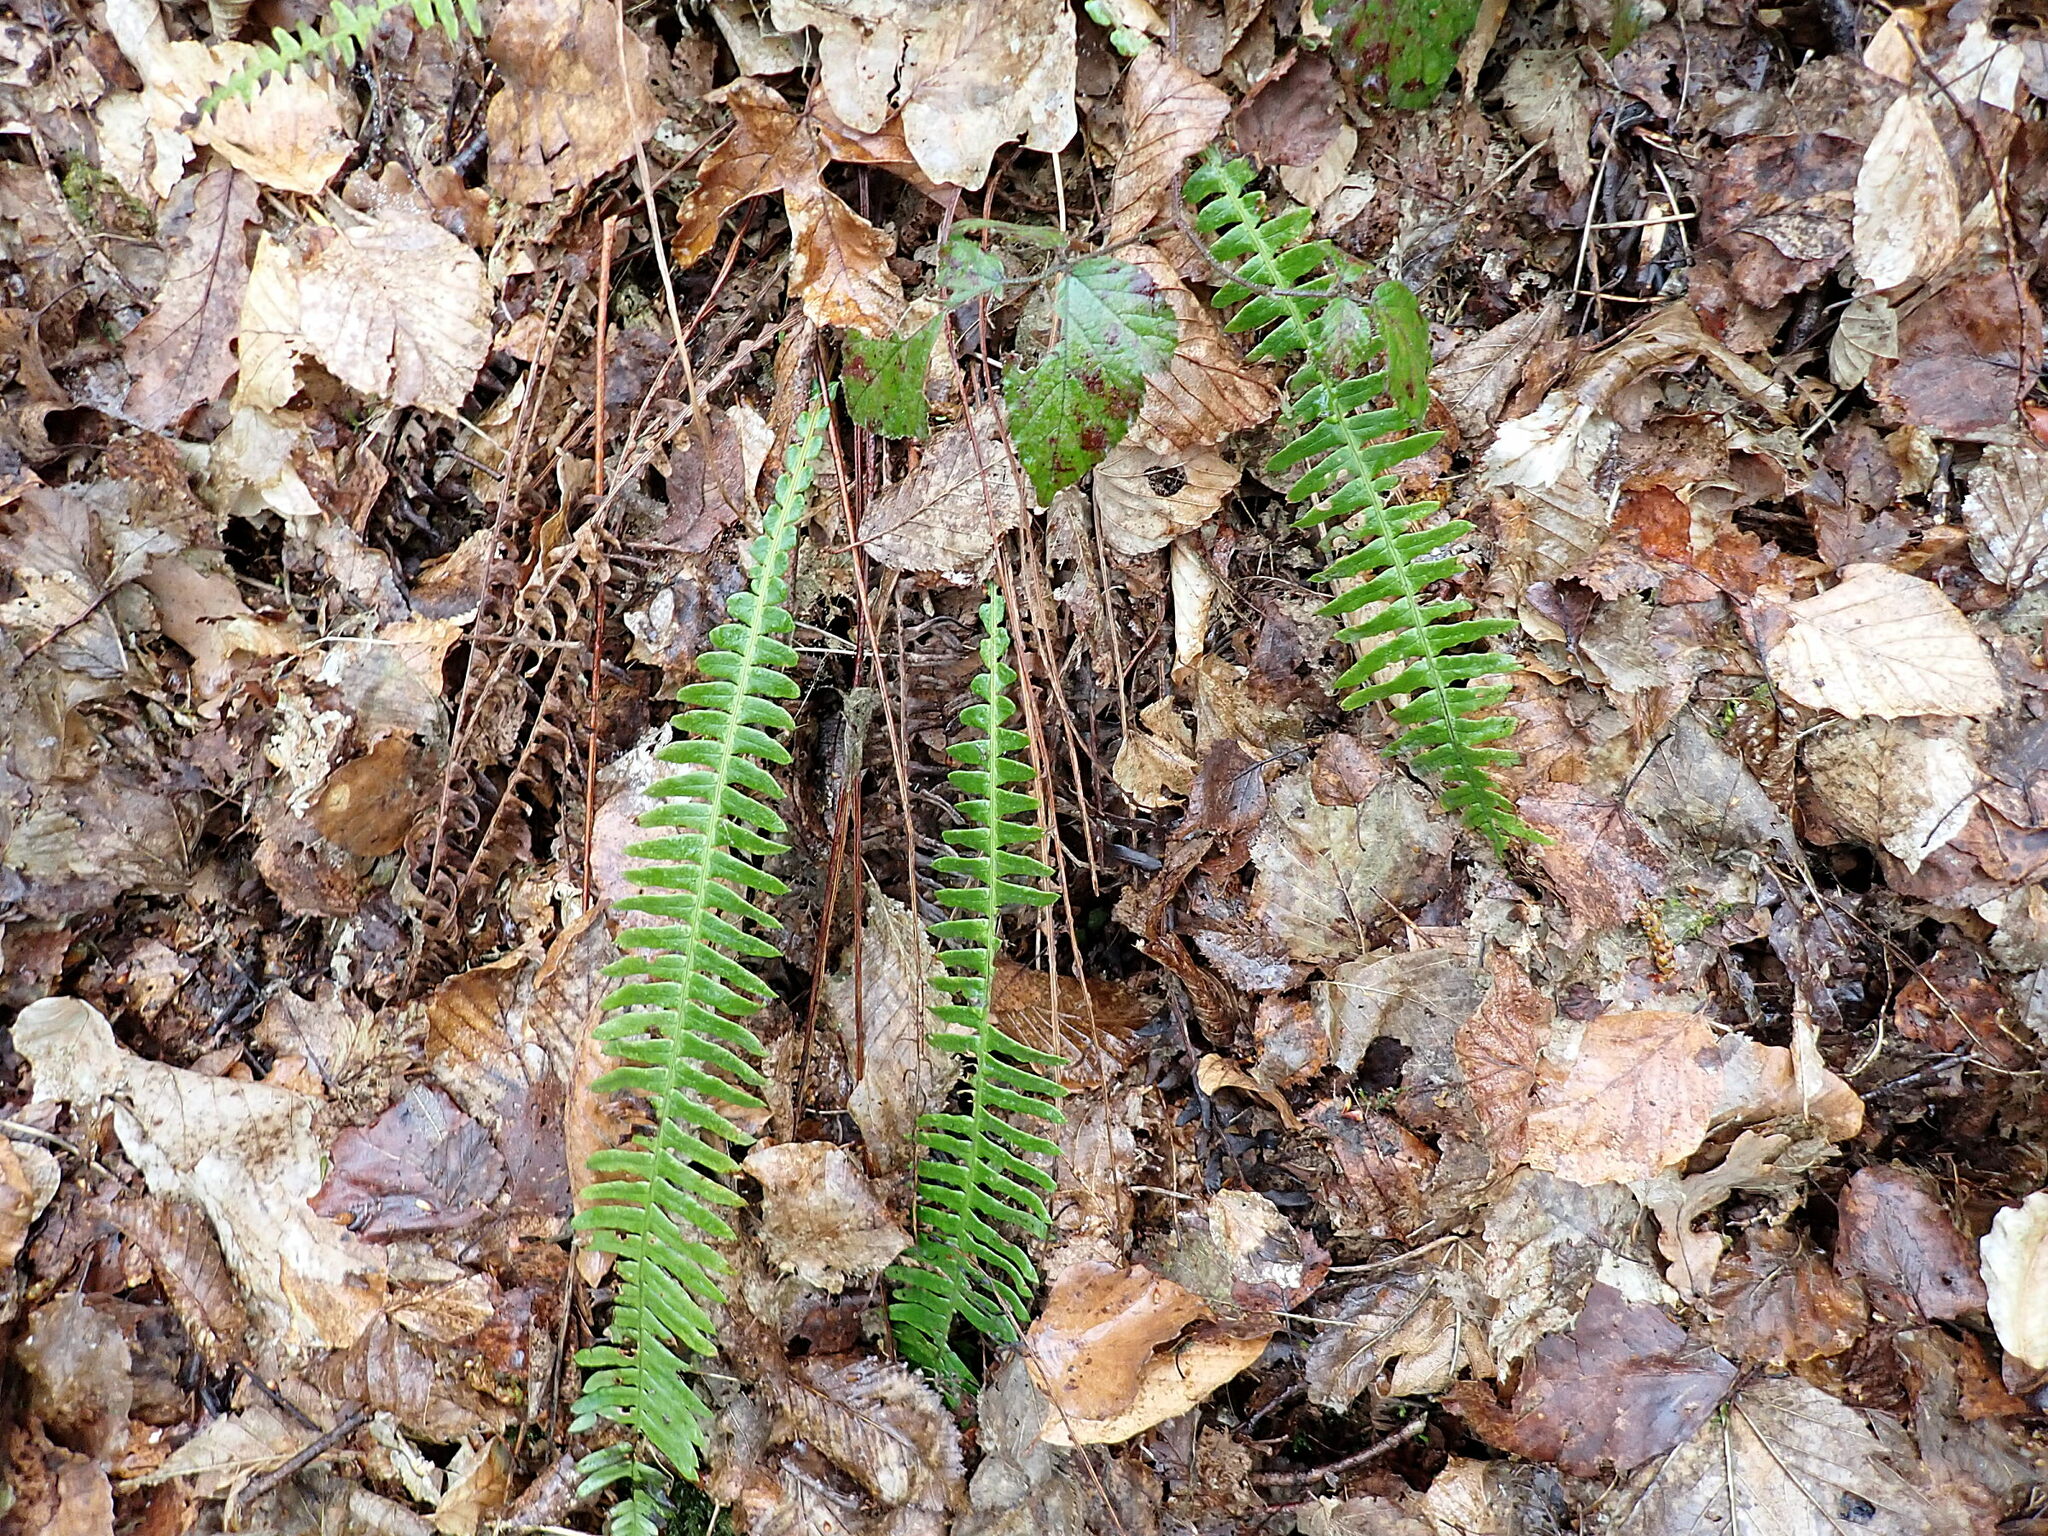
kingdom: Plantae
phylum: Tracheophyta
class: Polypodiopsida
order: Polypodiales
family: Blechnaceae
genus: Struthiopteris
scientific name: Struthiopteris spicant
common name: Deer fern
